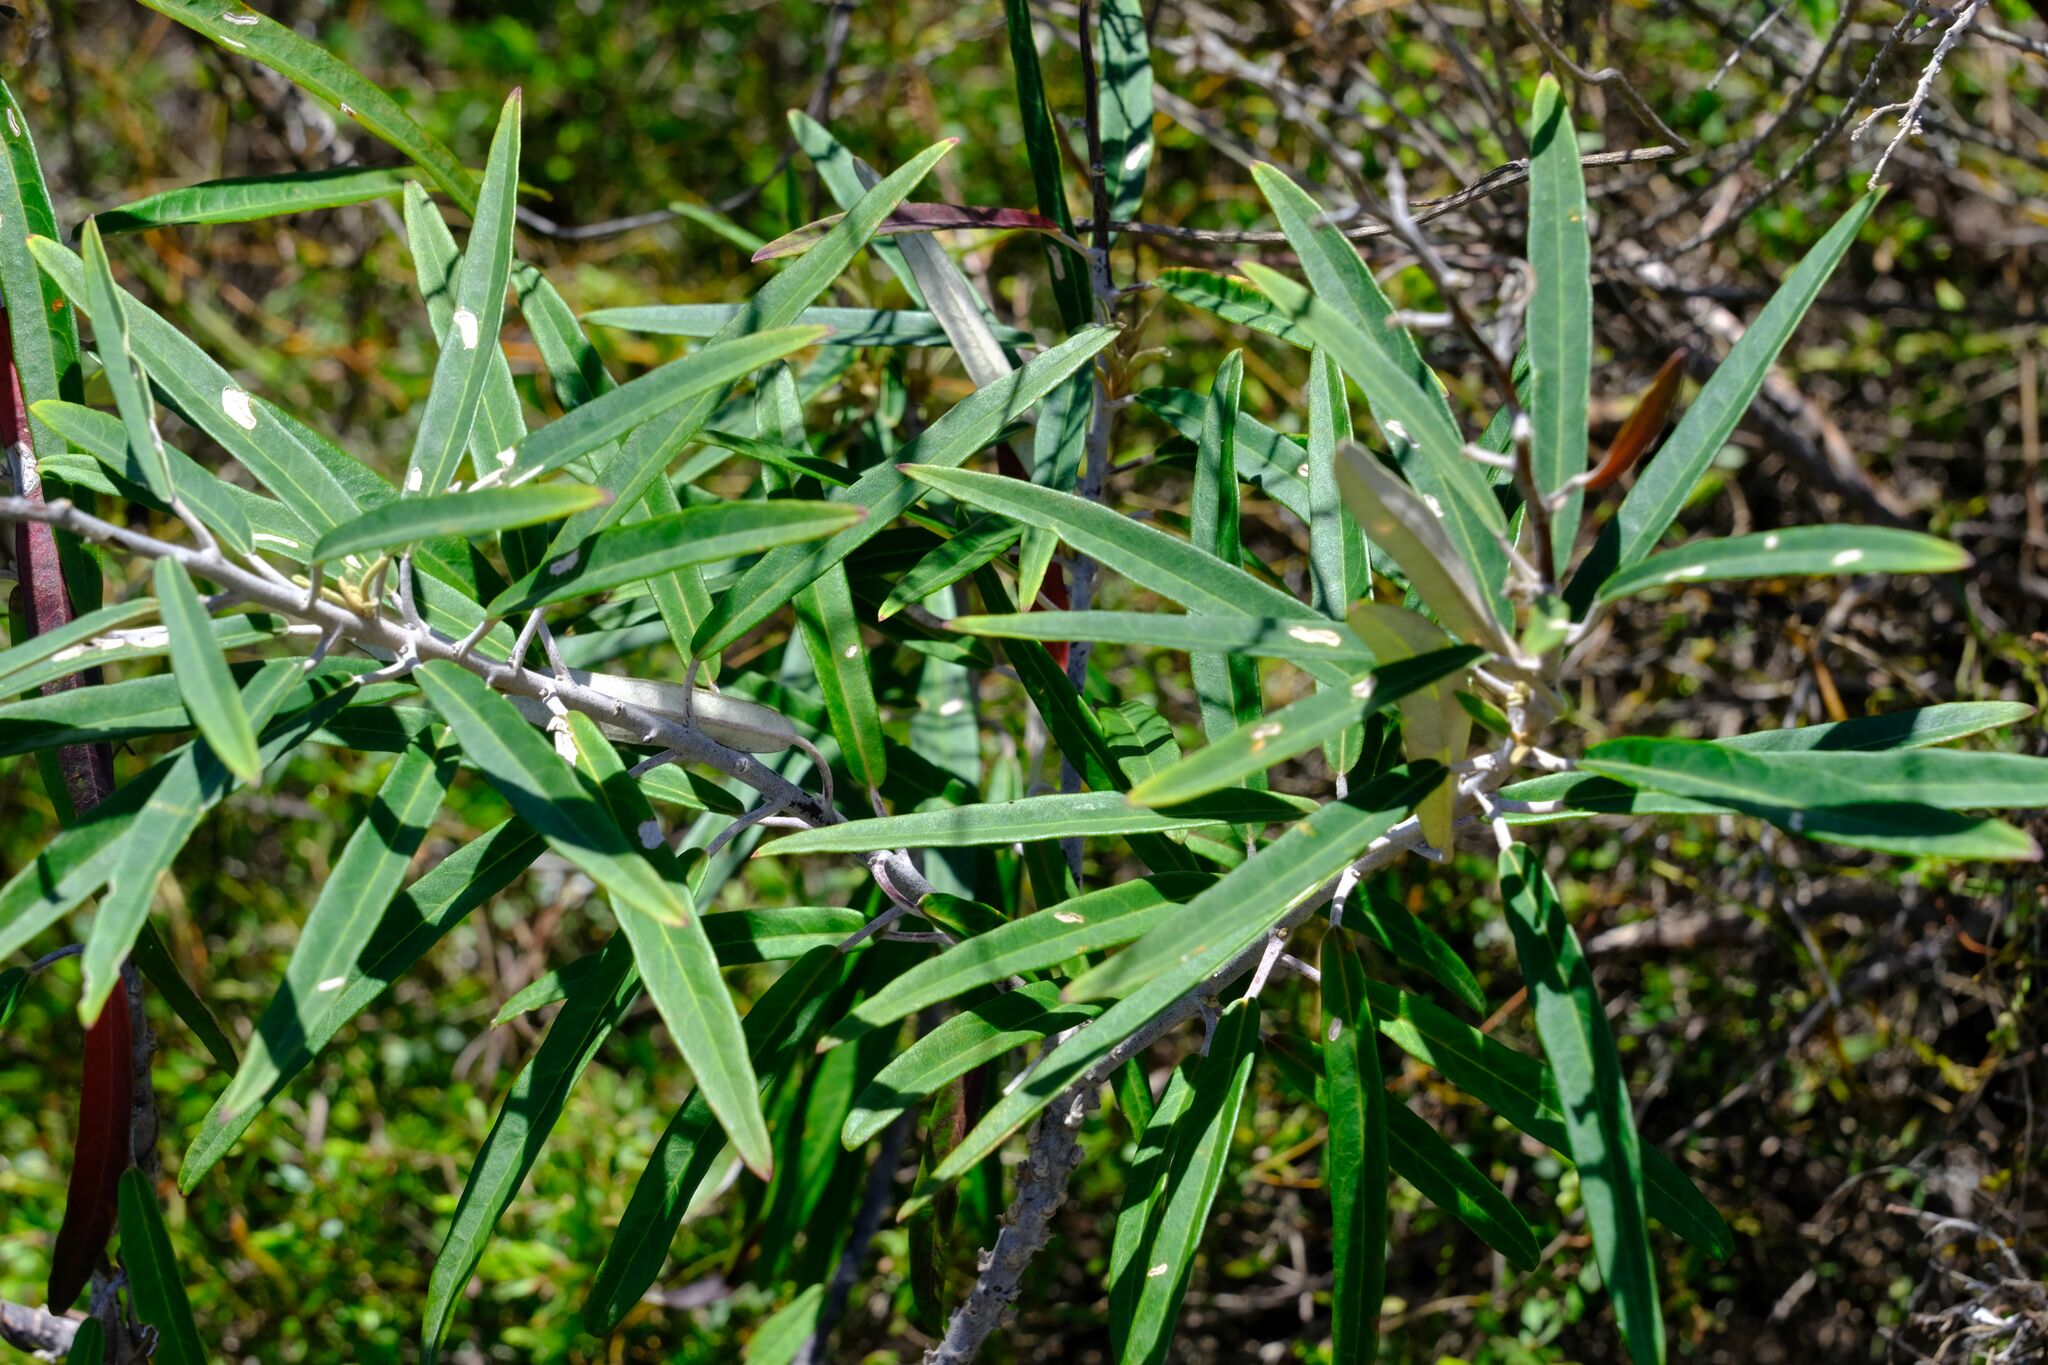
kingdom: Plantae
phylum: Tracheophyta
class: Magnoliopsida
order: Apiales
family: Araliaceae
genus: Astrotricha
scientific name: Astrotricha longifolia
